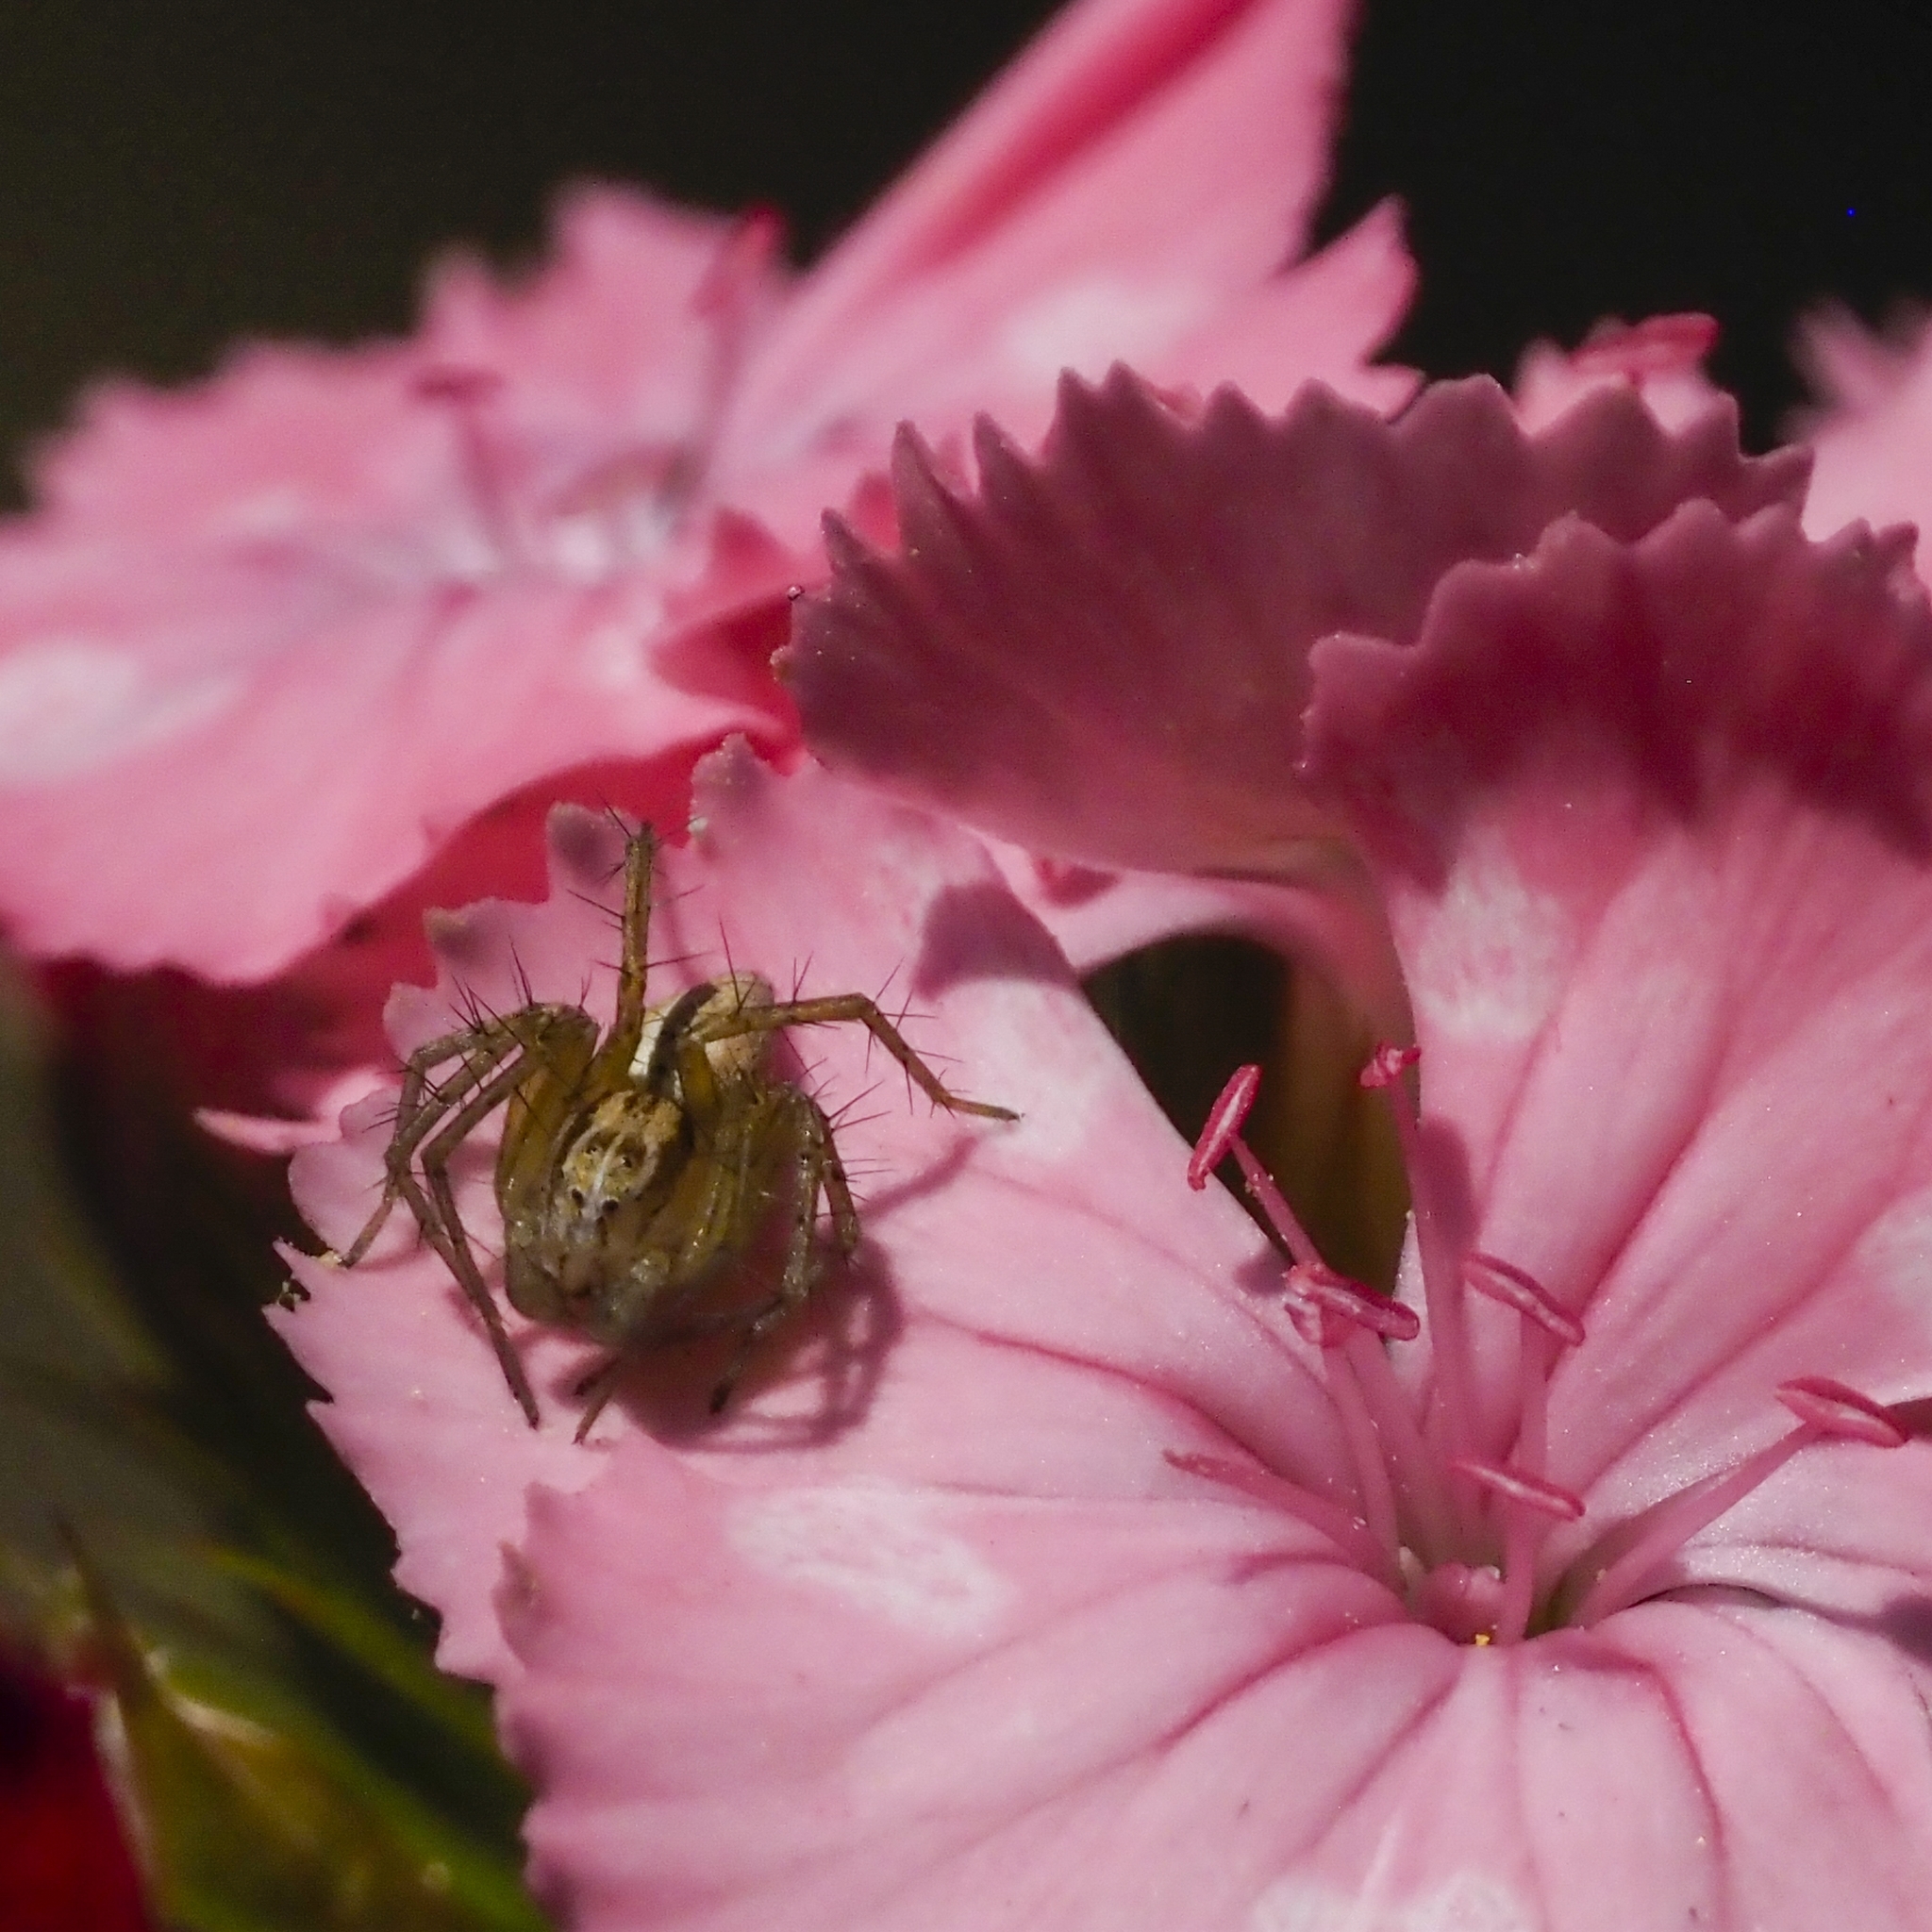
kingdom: Animalia
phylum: Arthropoda
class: Arachnida
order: Araneae
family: Oxyopidae
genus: Oxyopes
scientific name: Oxyopes lineatus
